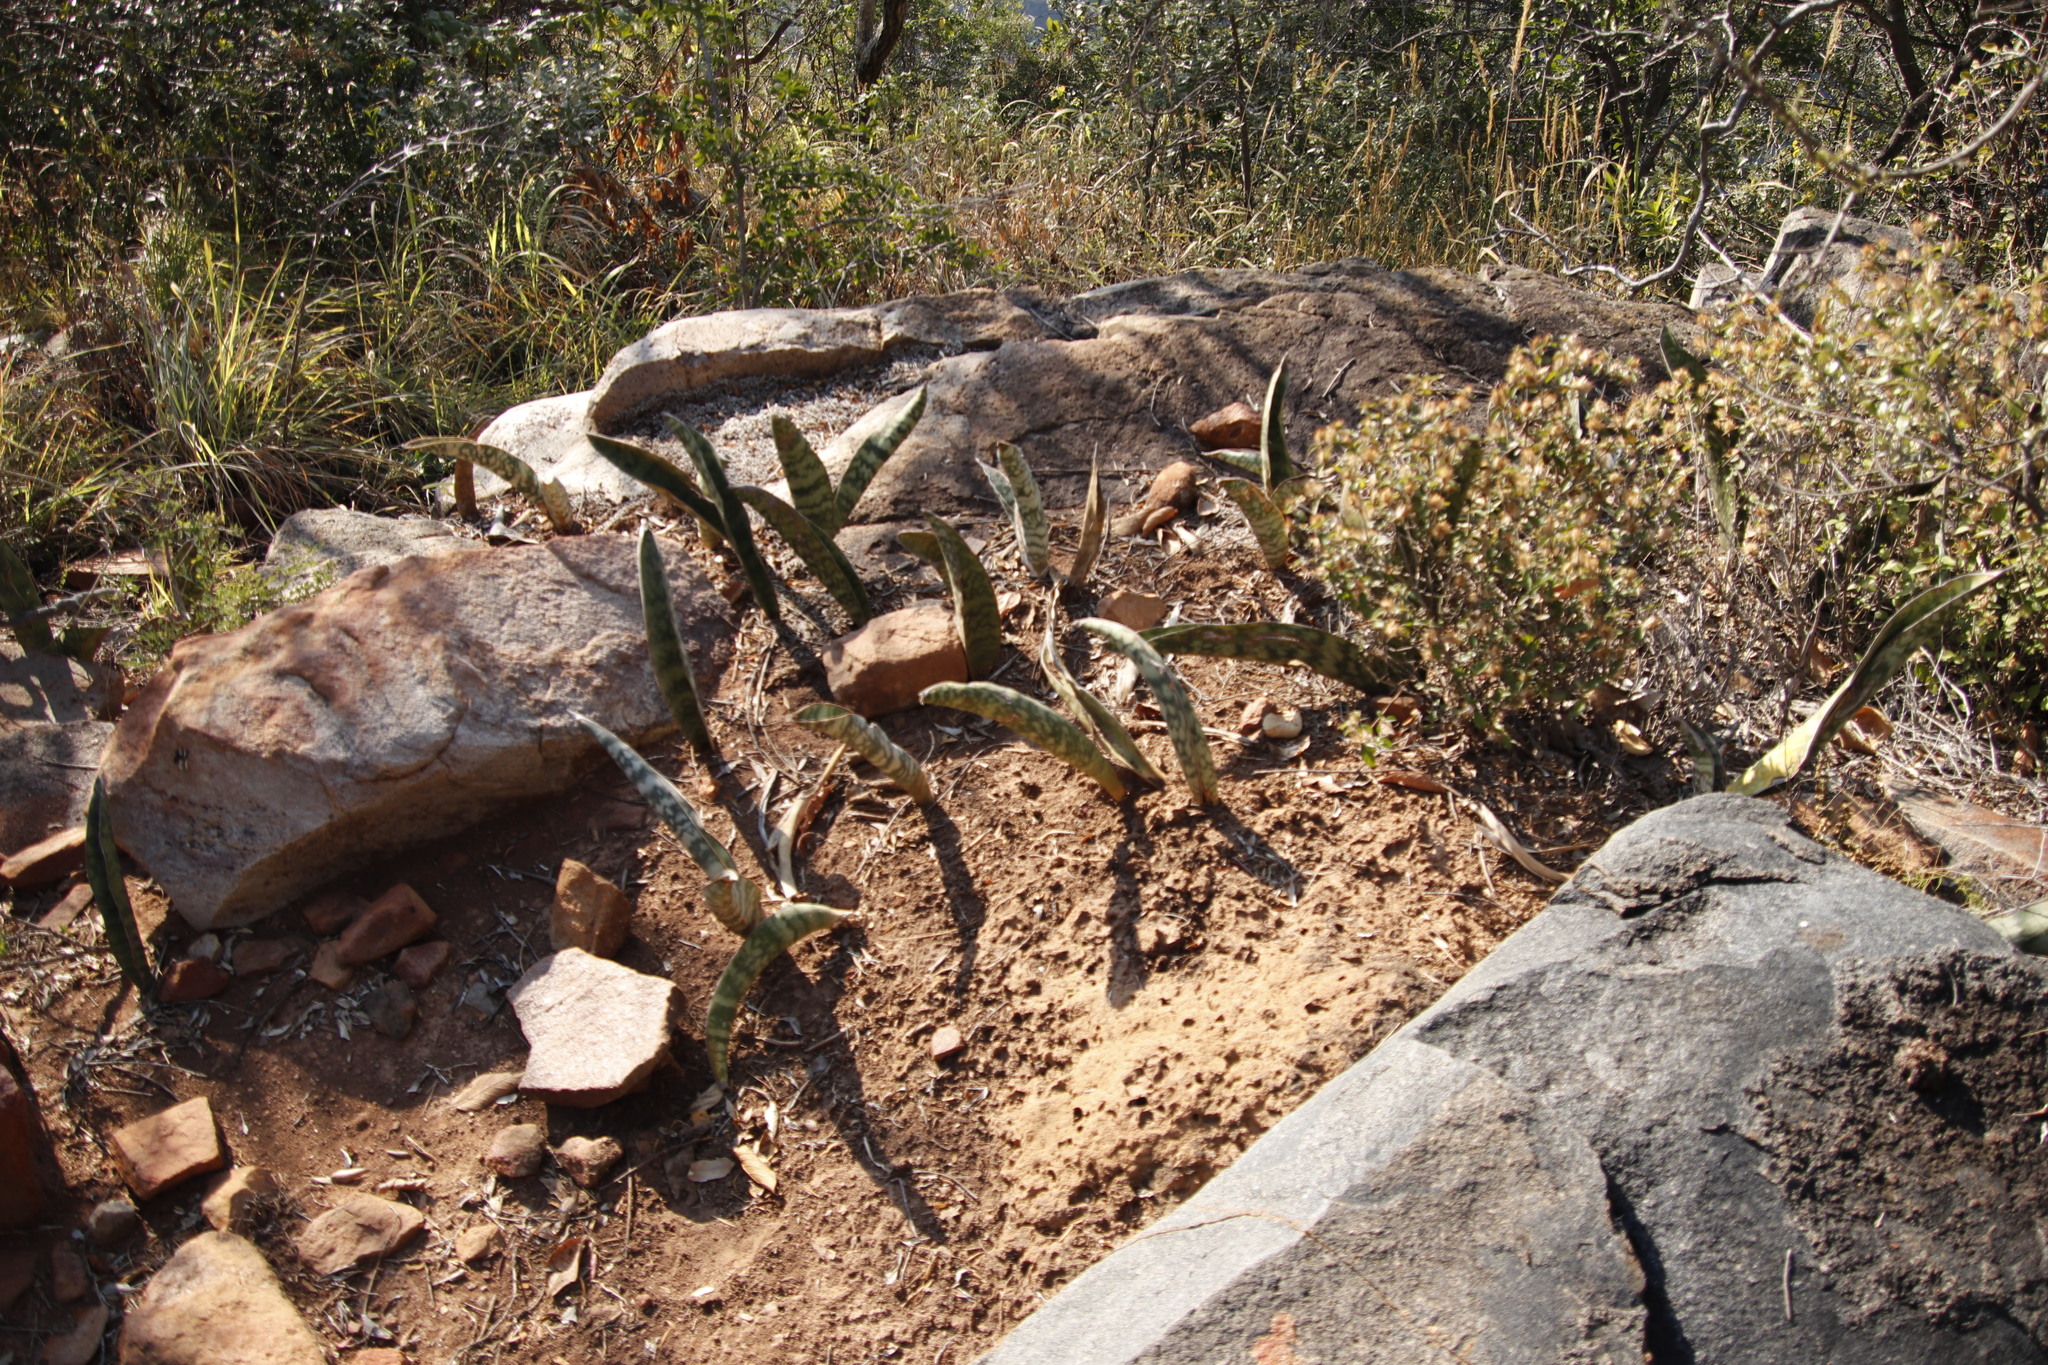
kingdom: Plantae
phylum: Tracheophyta
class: Liliopsida
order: Asparagales
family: Asparagaceae
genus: Dracaena
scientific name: Dracaena hyacinthoides
